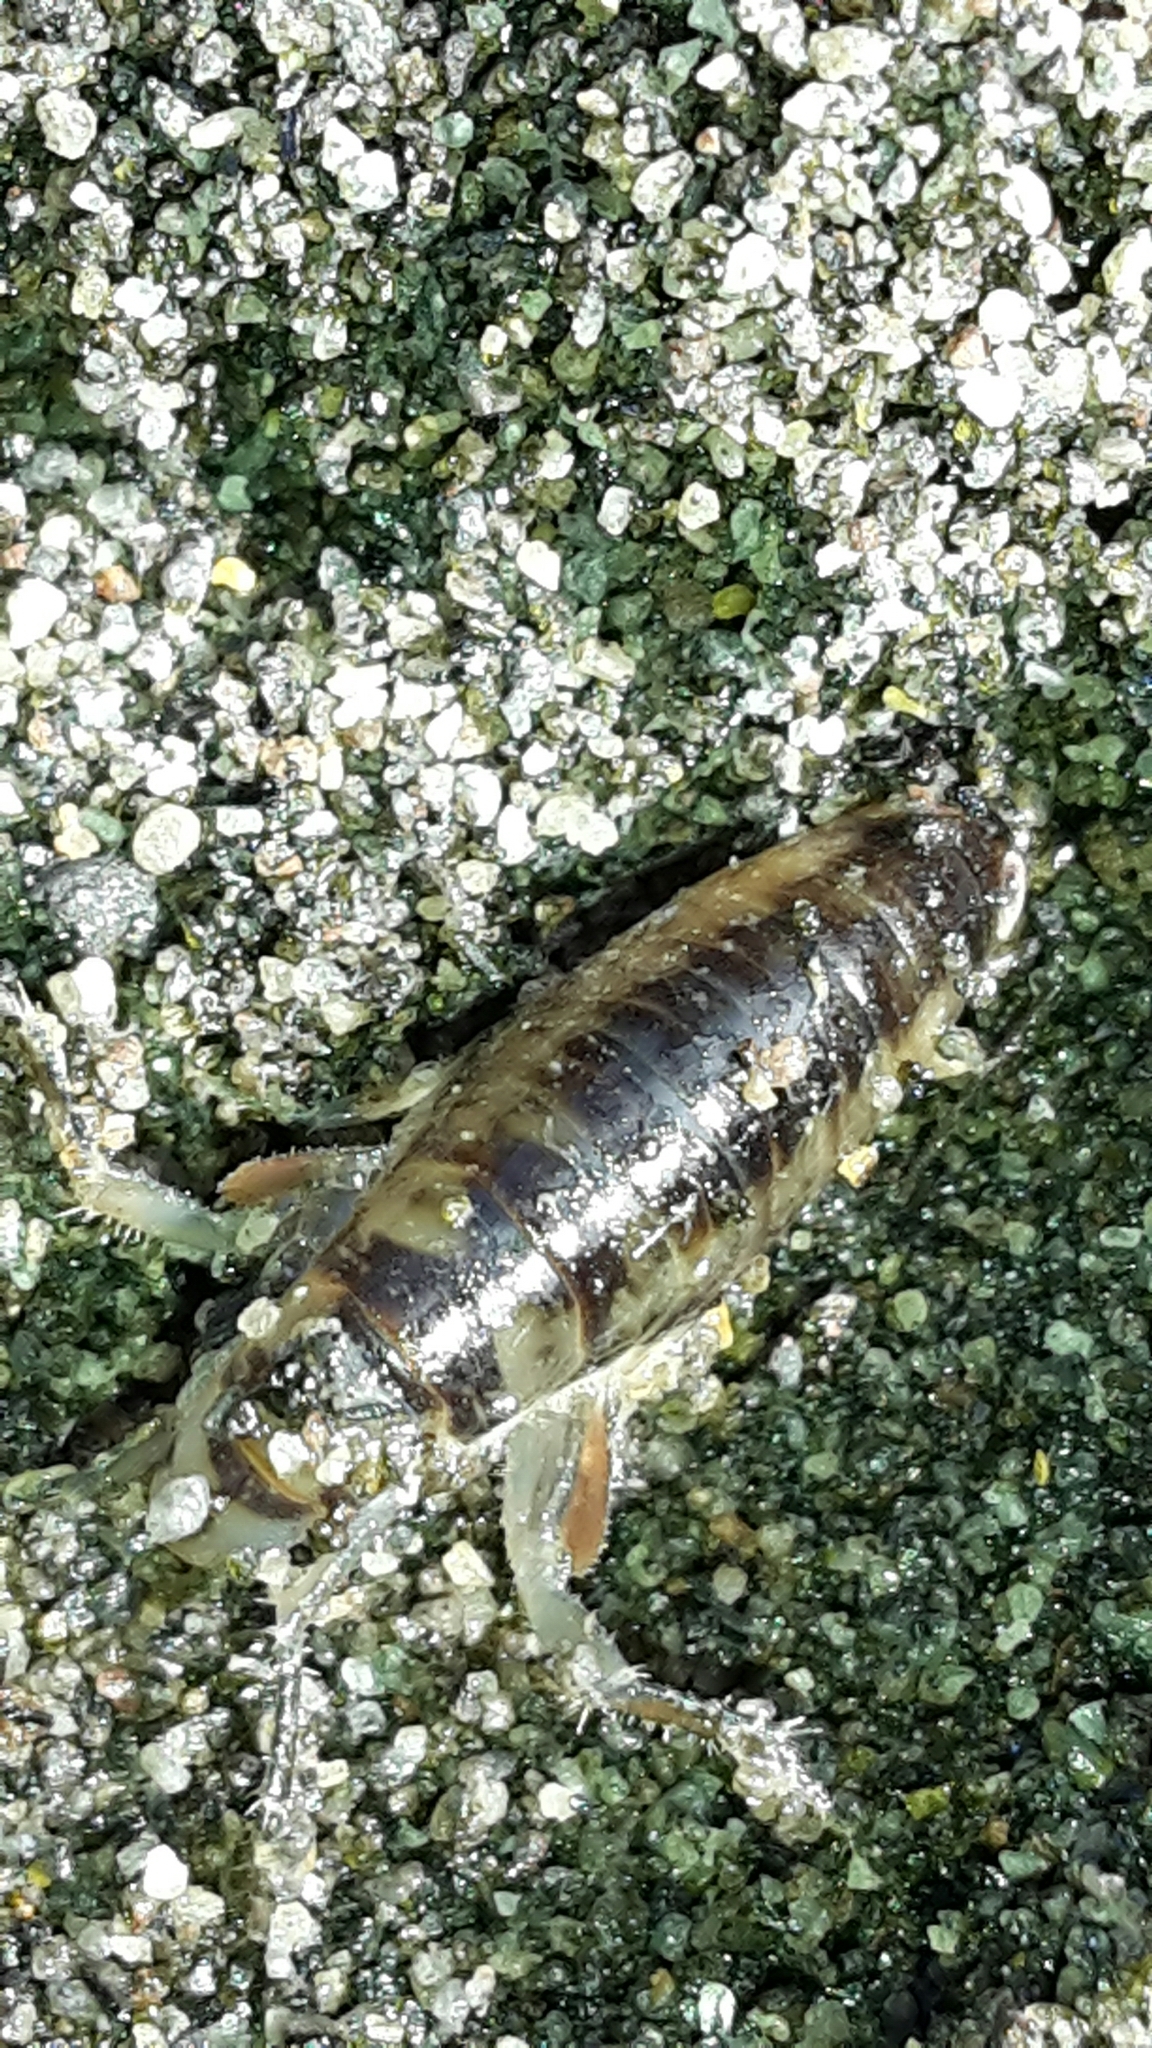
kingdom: Animalia
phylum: Arthropoda
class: Malacostraca
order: Amphipoda
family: Talitridae
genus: Bellorchestia
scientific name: Bellorchestia quoyana
